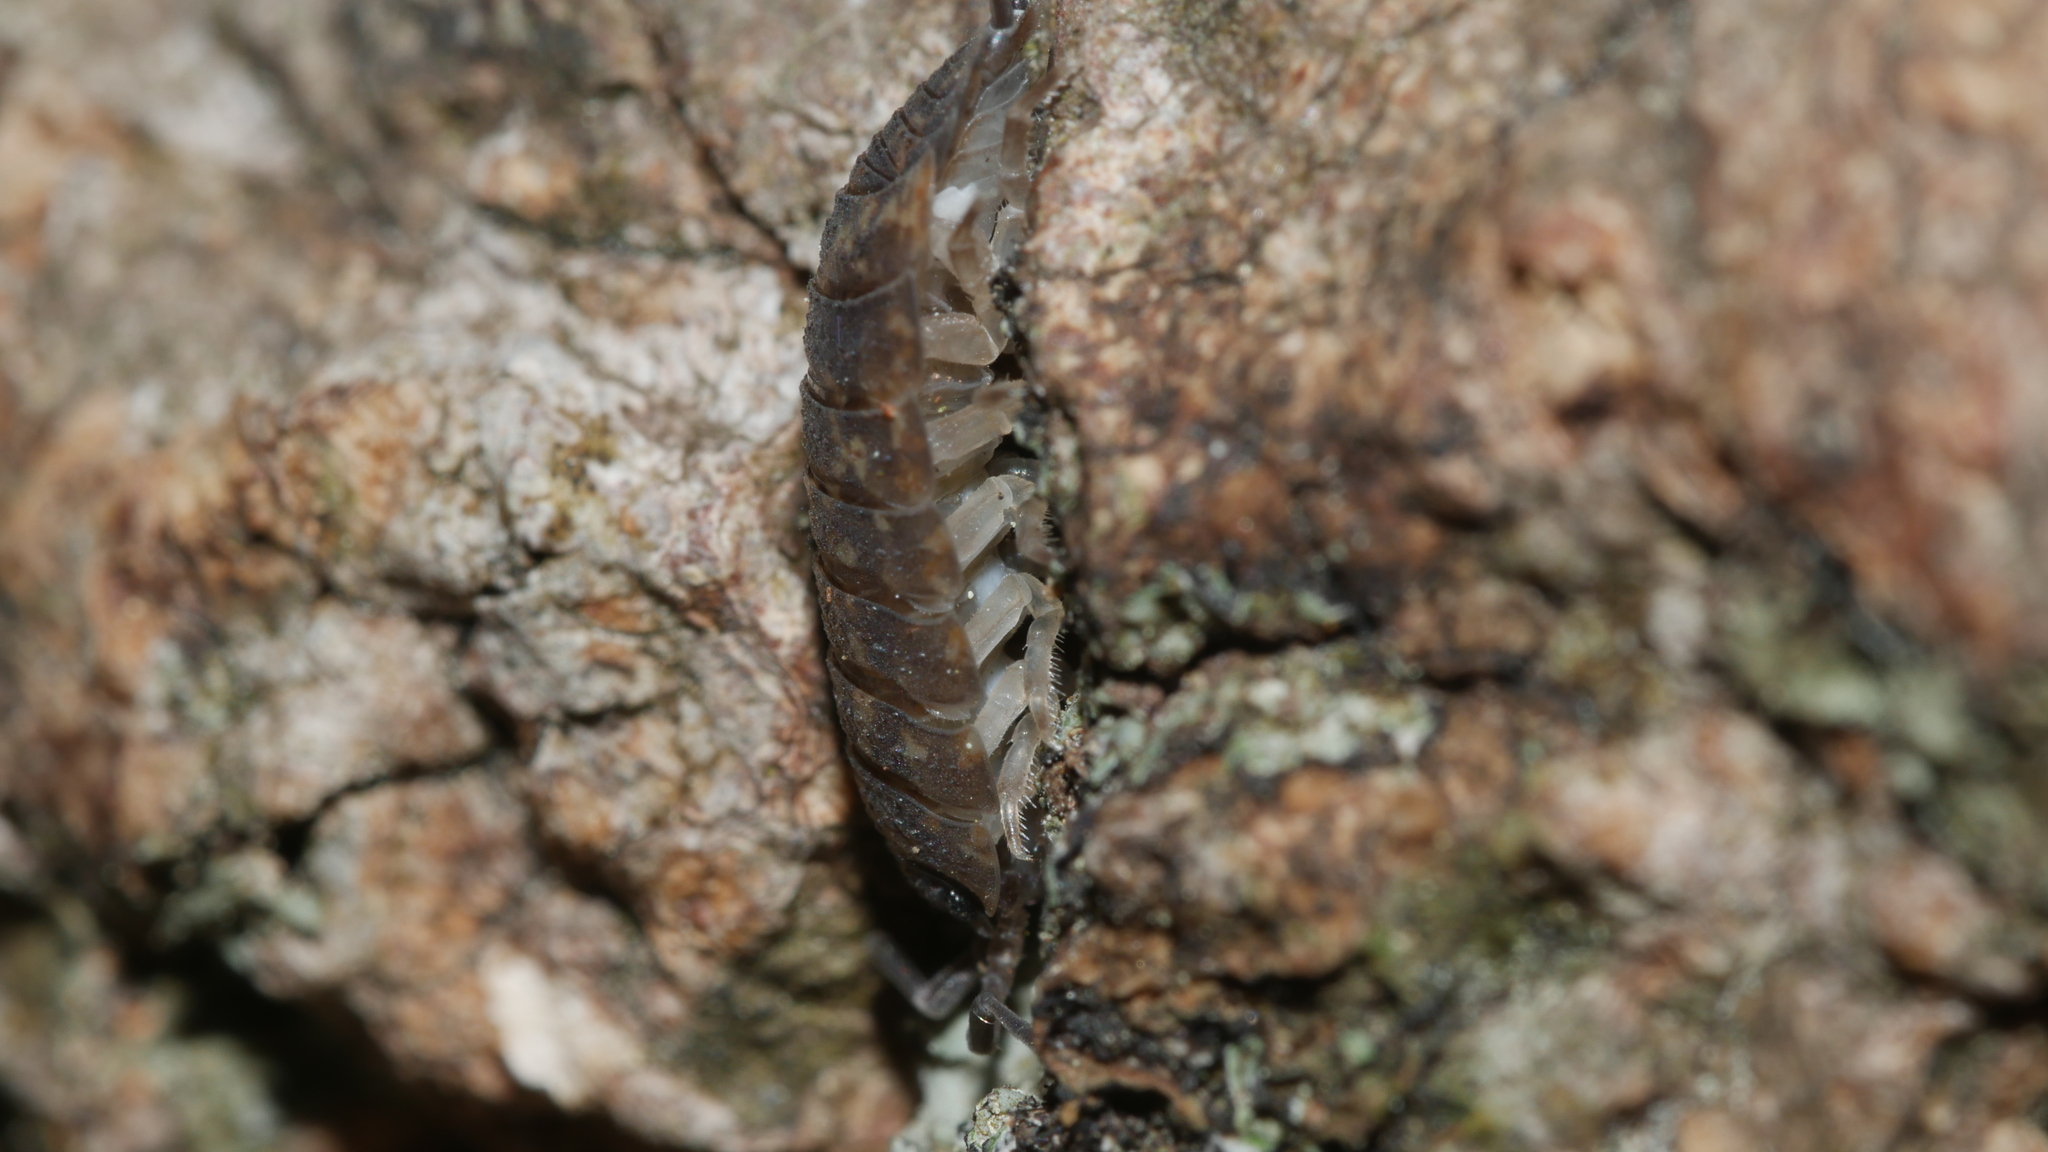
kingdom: Animalia
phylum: Arthropoda
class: Malacostraca
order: Isopoda
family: Porcellionidae
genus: Porcellio
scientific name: Porcellio scaber
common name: Common rough woodlouse
